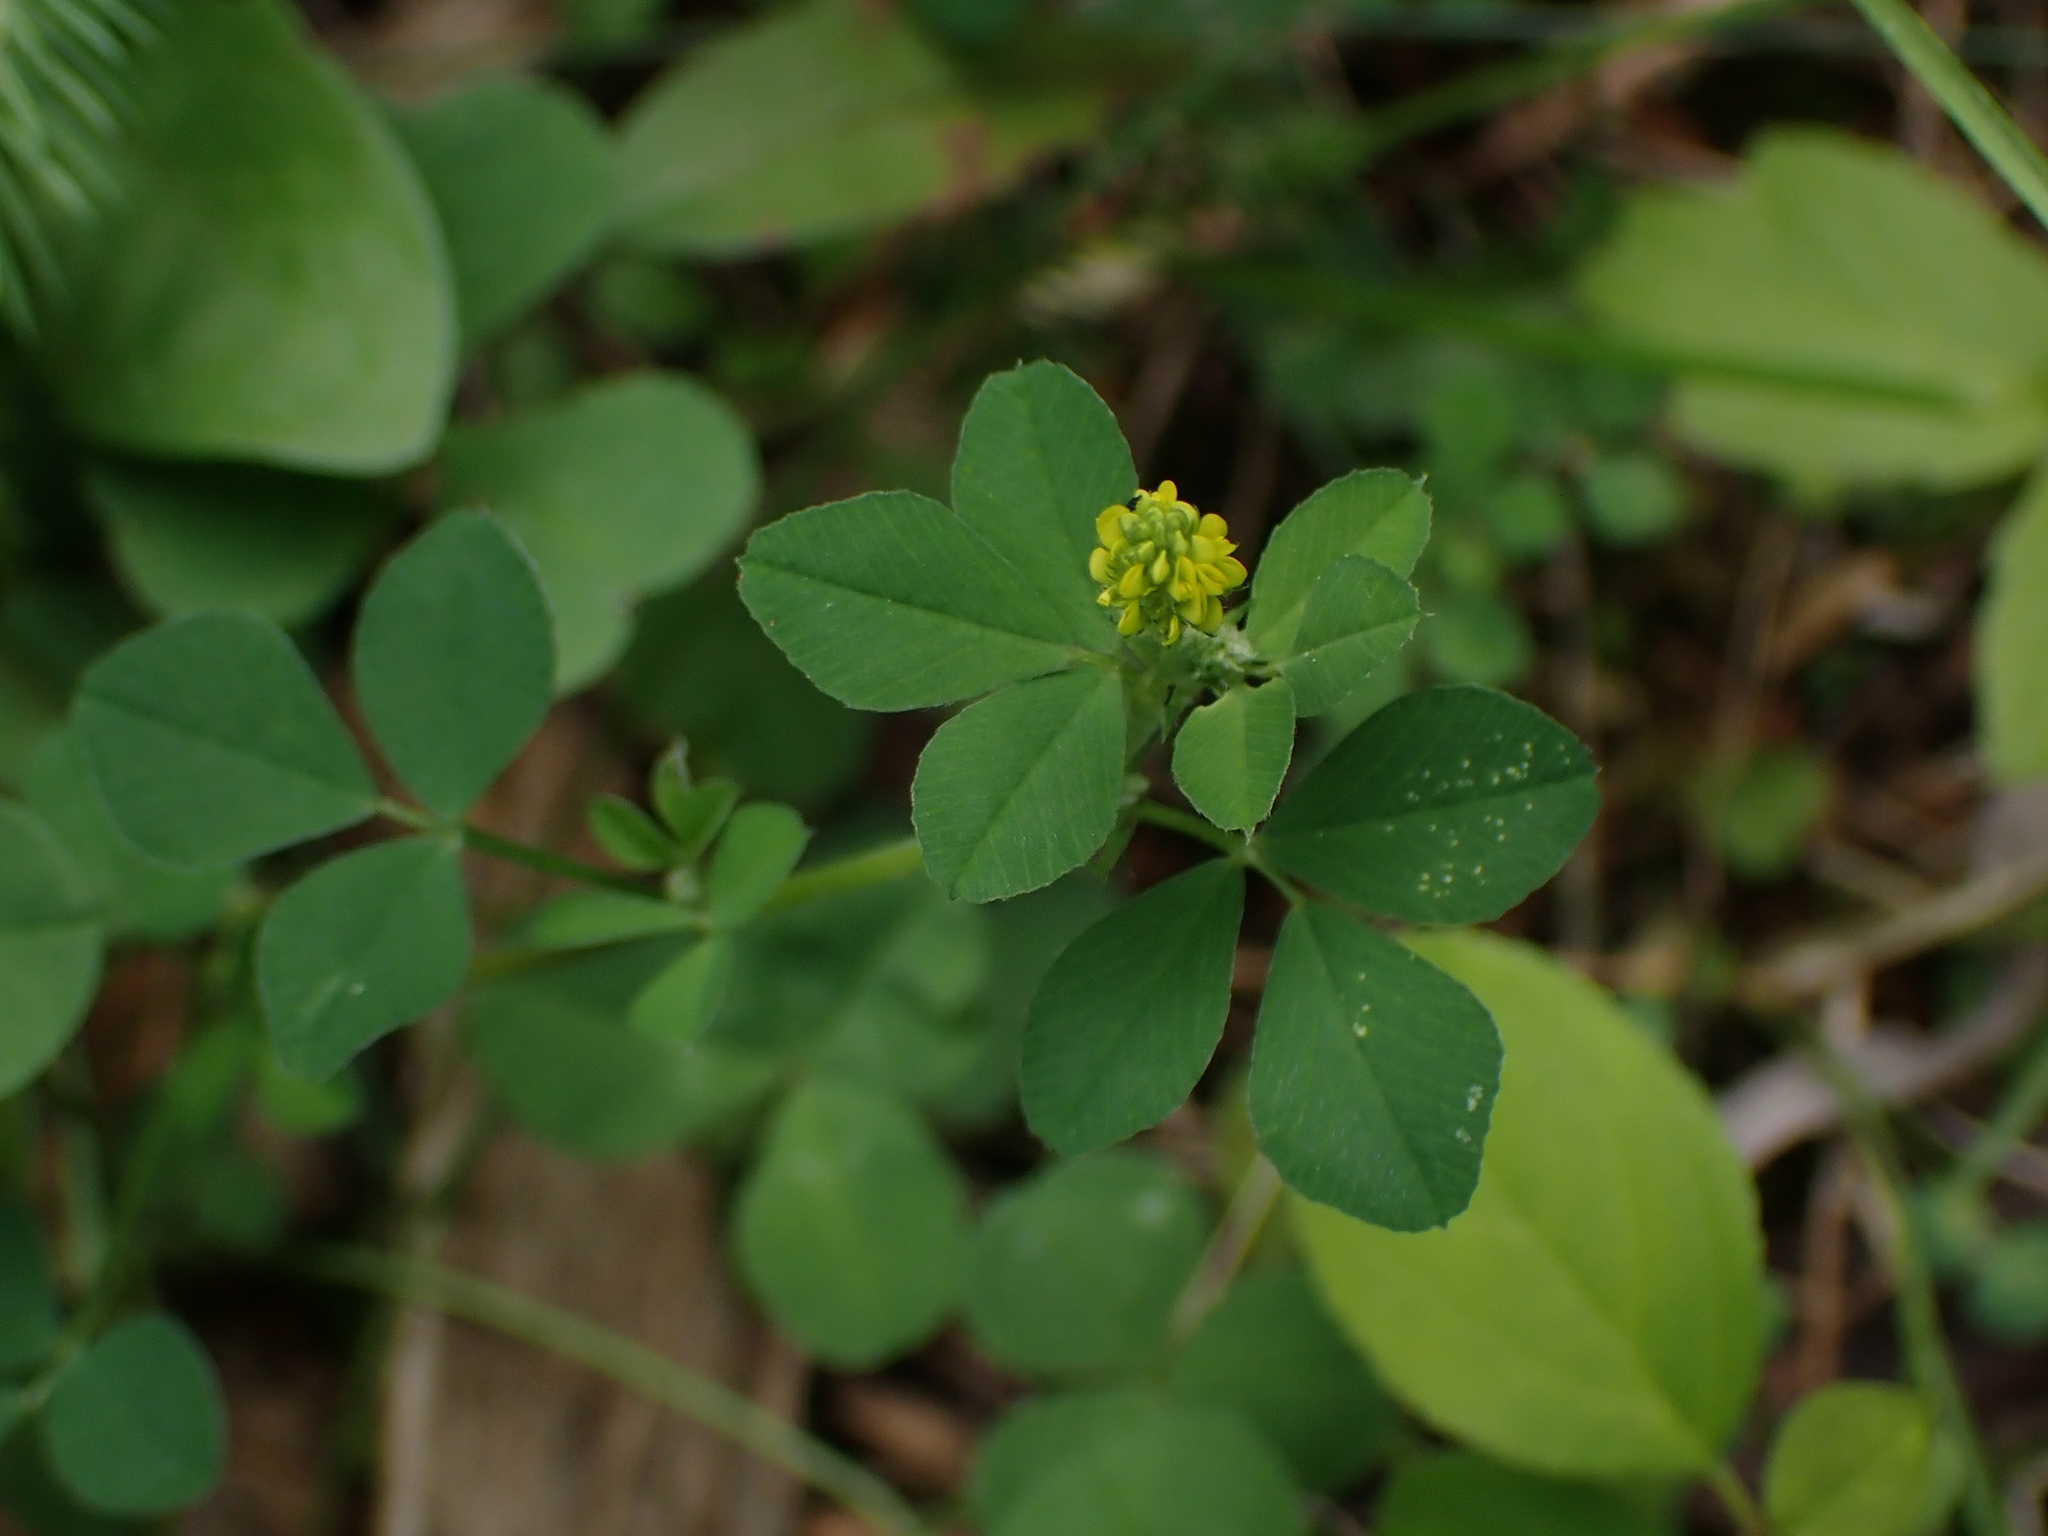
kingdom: Plantae
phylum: Tracheophyta
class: Magnoliopsida
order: Fabales
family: Fabaceae
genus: Medicago
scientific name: Medicago lupulina
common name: Black medick
